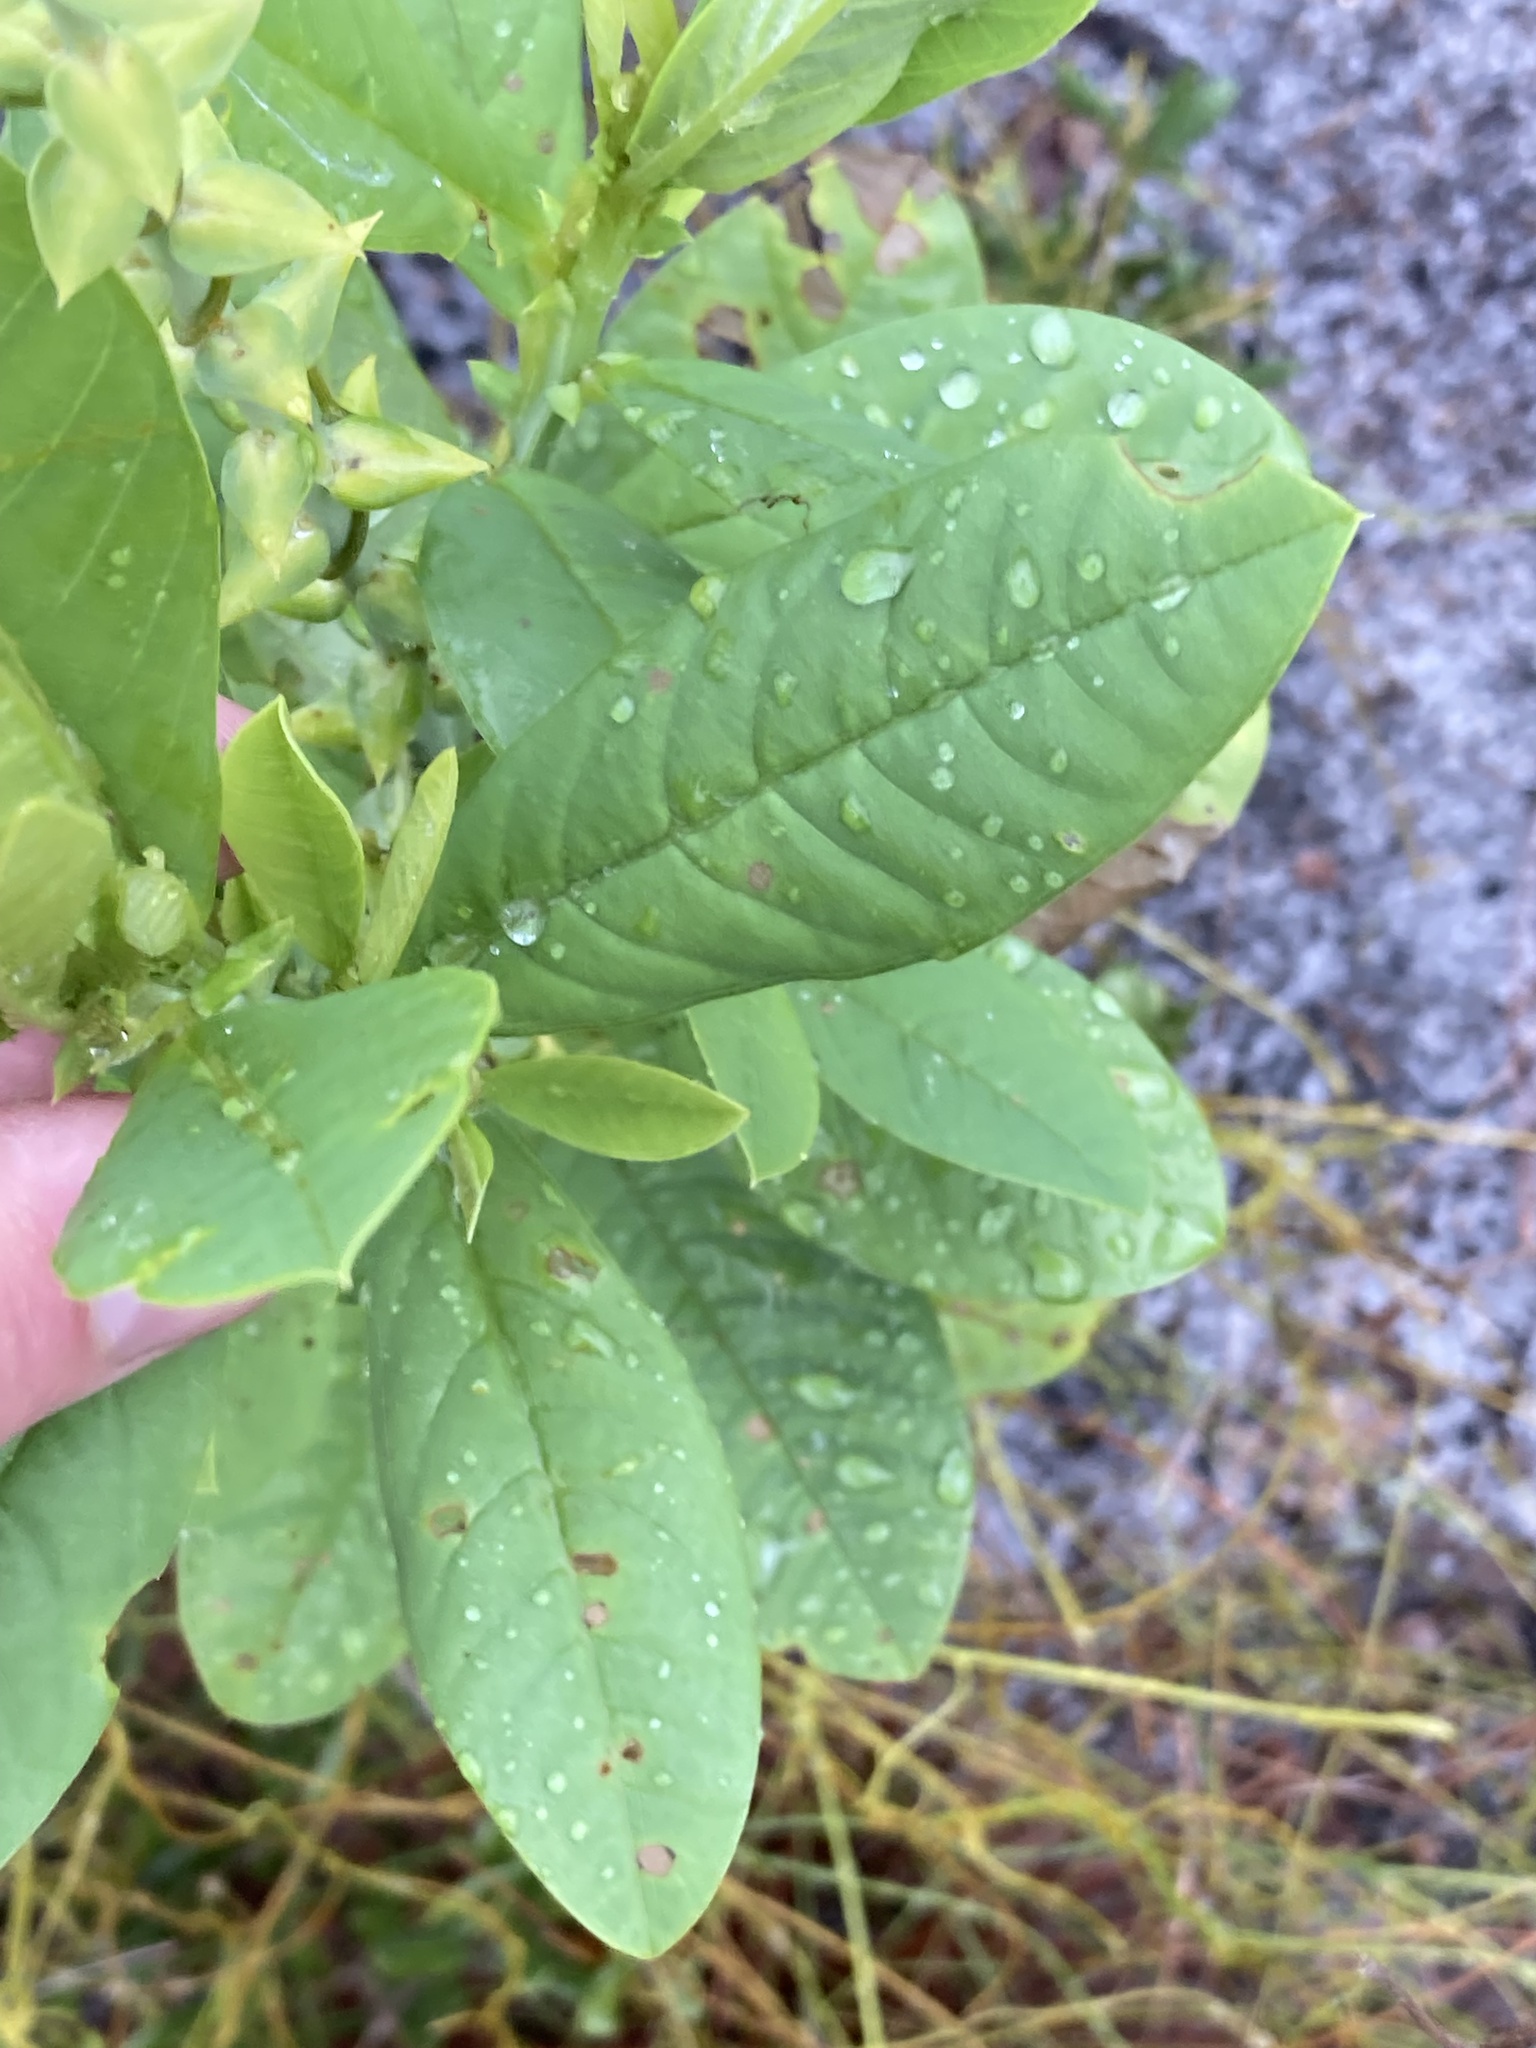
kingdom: Plantae
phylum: Tracheophyta
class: Magnoliopsida
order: Fabales
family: Fabaceae
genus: Crotalaria
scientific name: Crotalaria spectabilis
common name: Showy rattlebox
